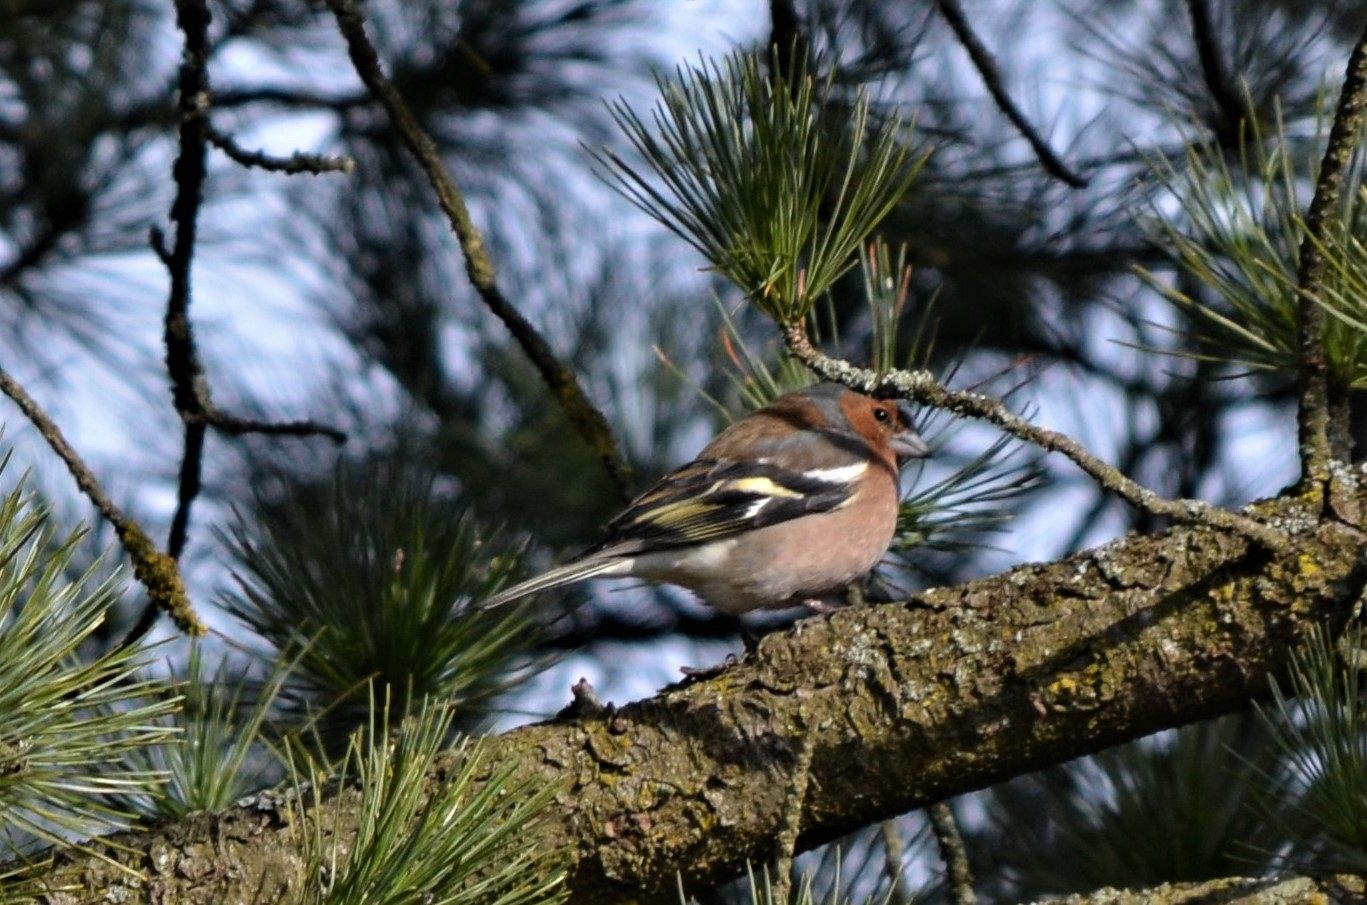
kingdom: Animalia
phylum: Chordata
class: Aves
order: Passeriformes
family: Fringillidae
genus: Fringilla
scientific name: Fringilla coelebs
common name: Common chaffinch
